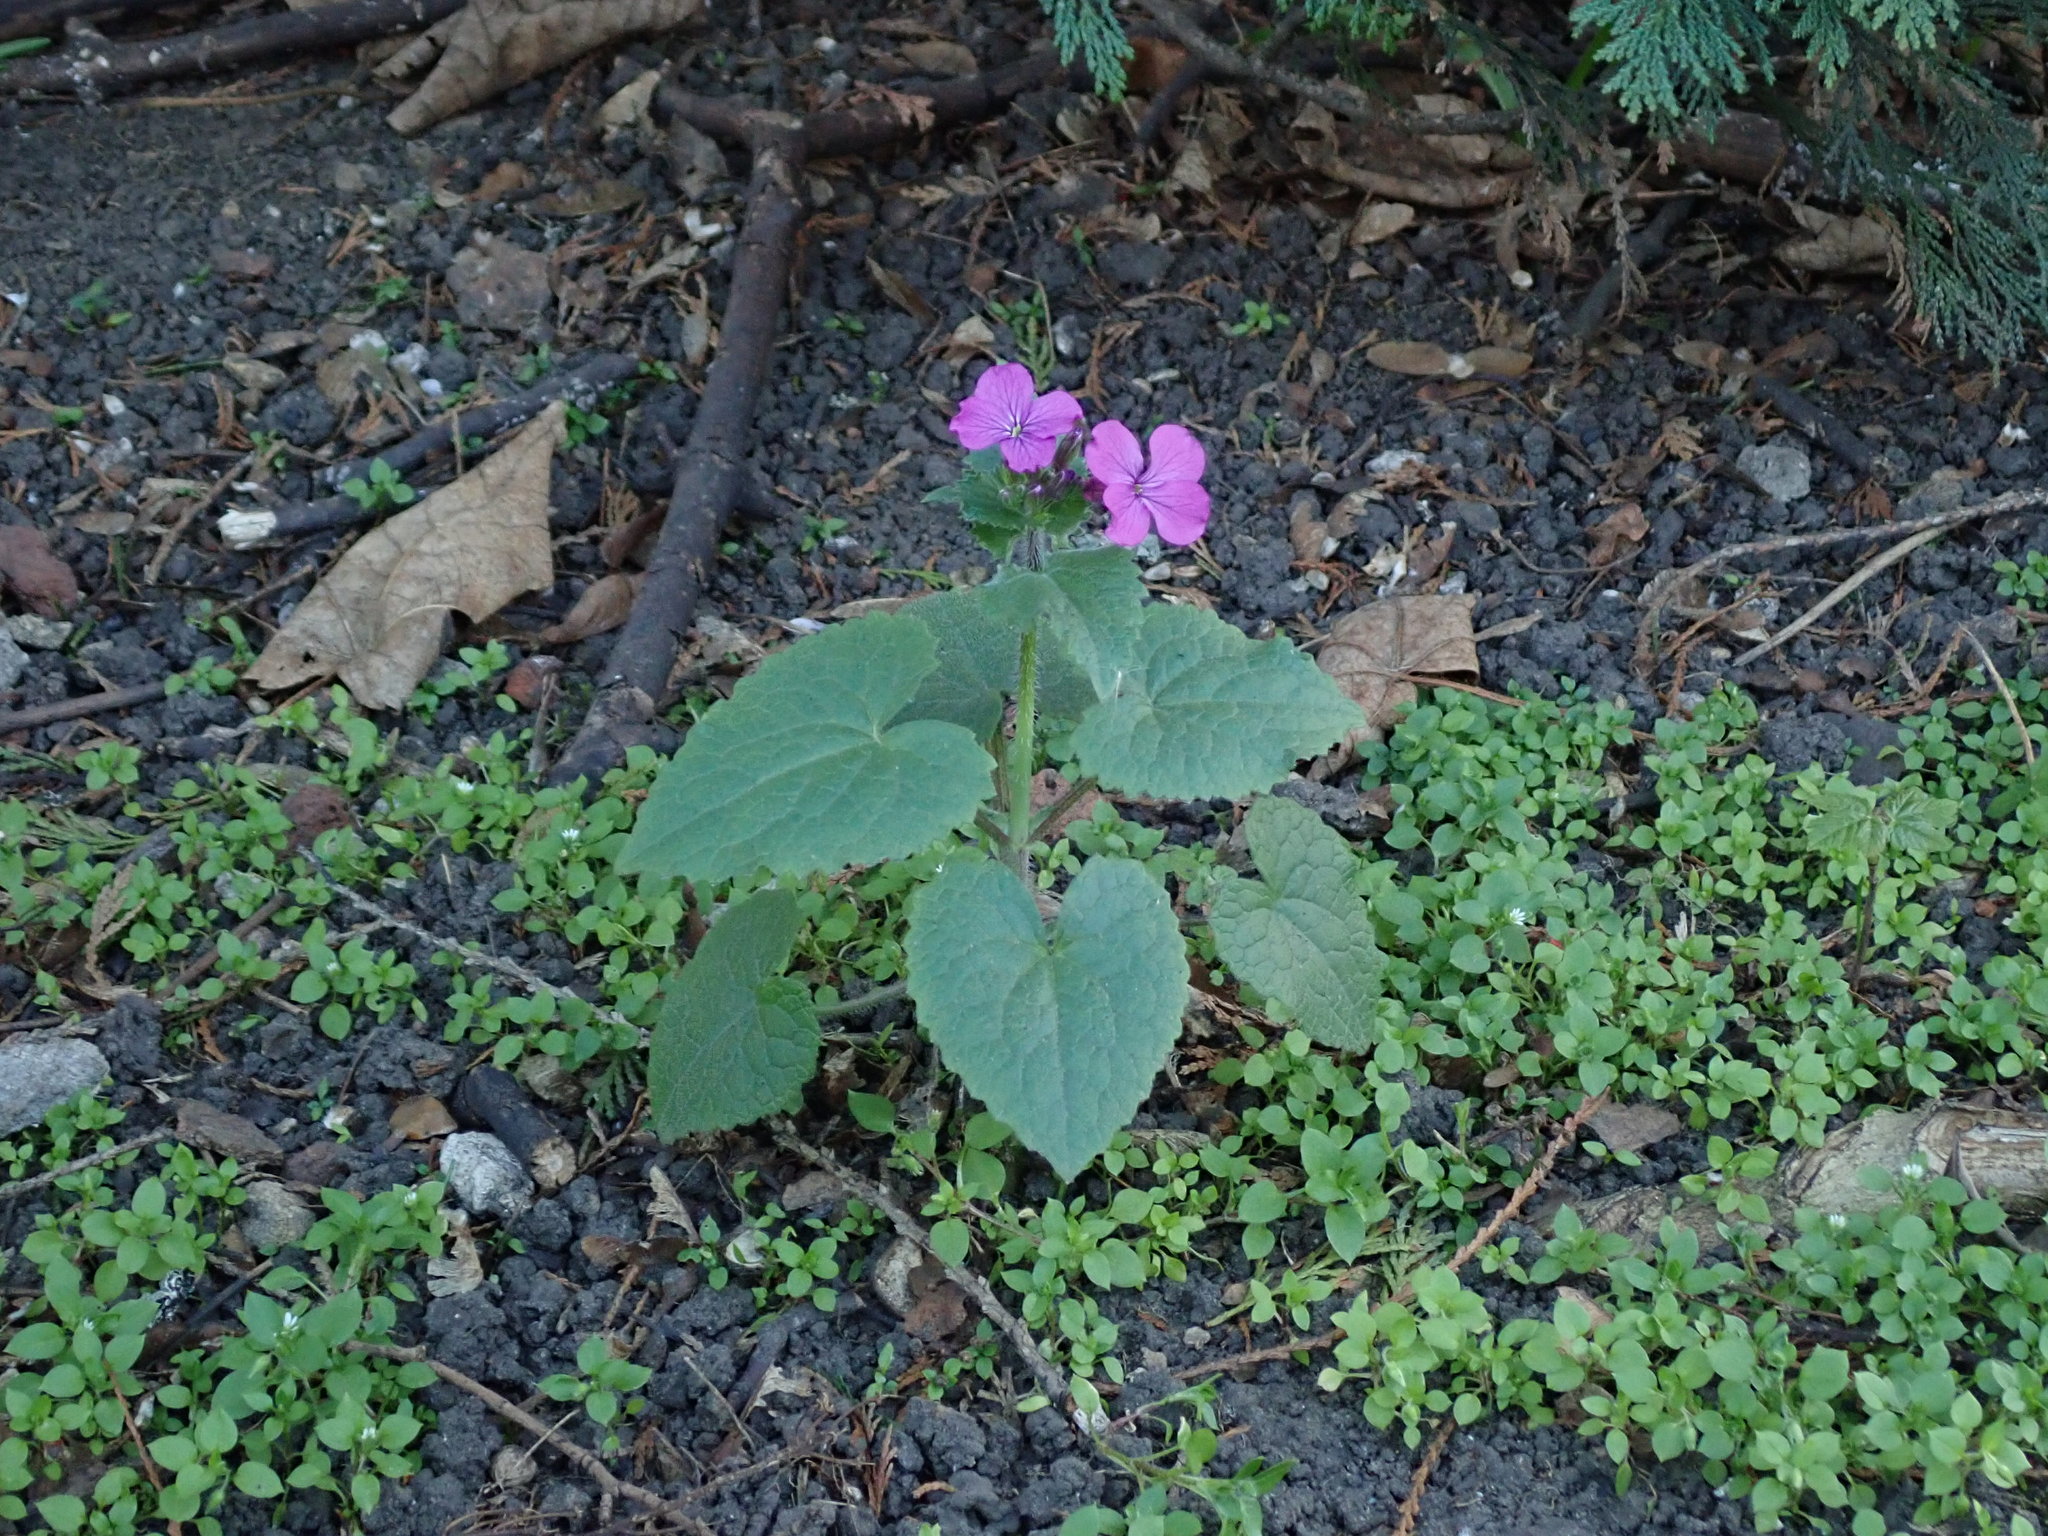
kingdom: Plantae
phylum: Tracheophyta
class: Magnoliopsida
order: Brassicales
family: Brassicaceae
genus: Lunaria
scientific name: Lunaria annua
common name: Honesty
